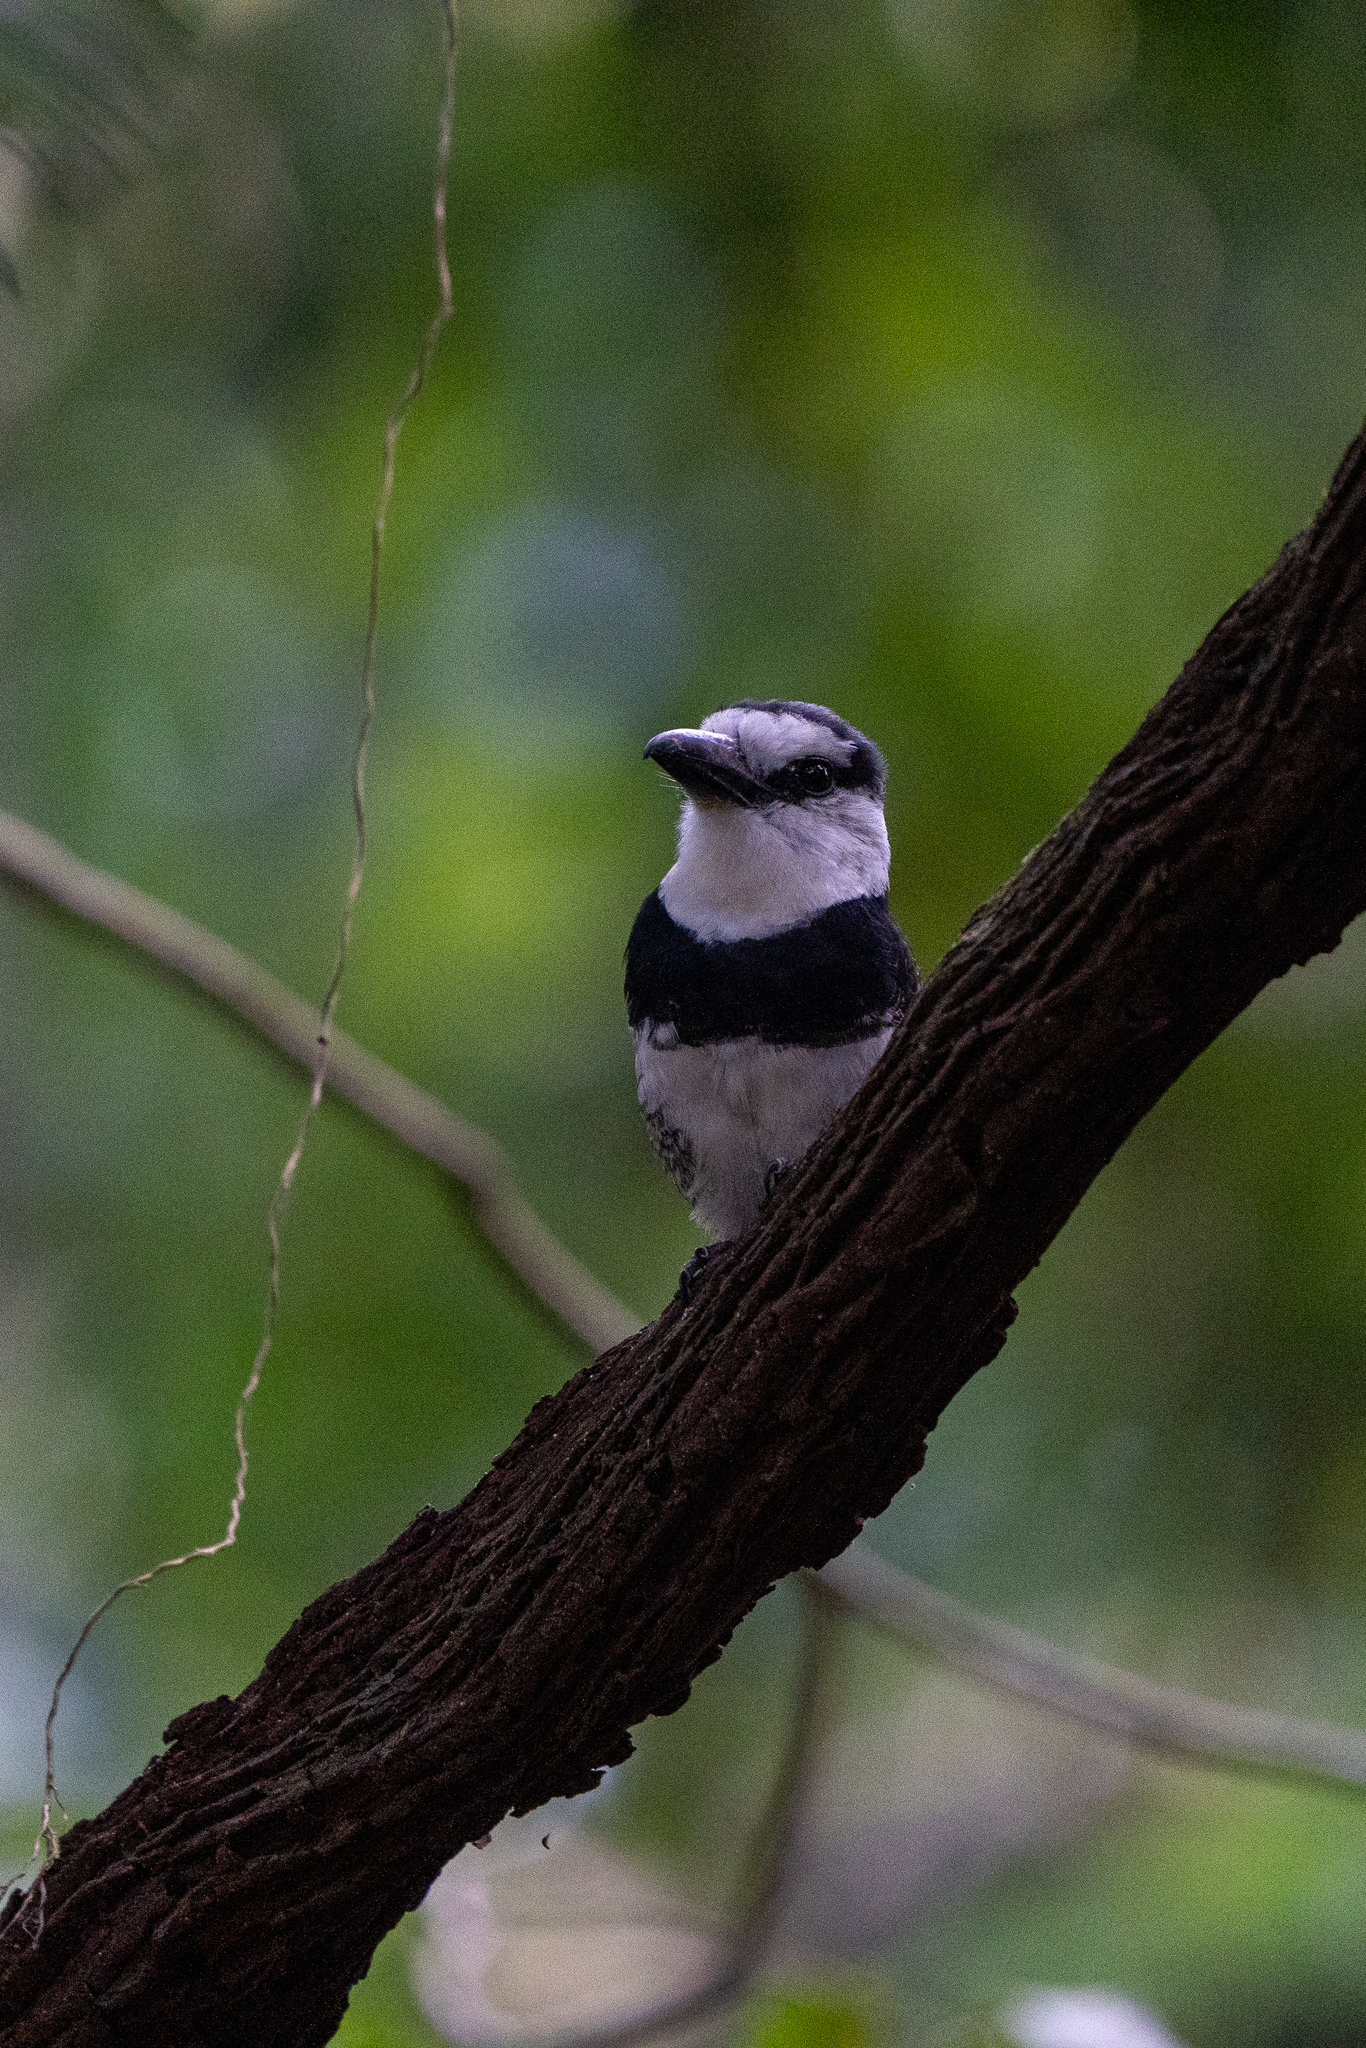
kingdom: Animalia
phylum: Chordata
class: Aves
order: Piciformes
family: Bucconidae
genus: Notharchus
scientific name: Notharchus hyperrhynchus
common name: White-necked puffbird
